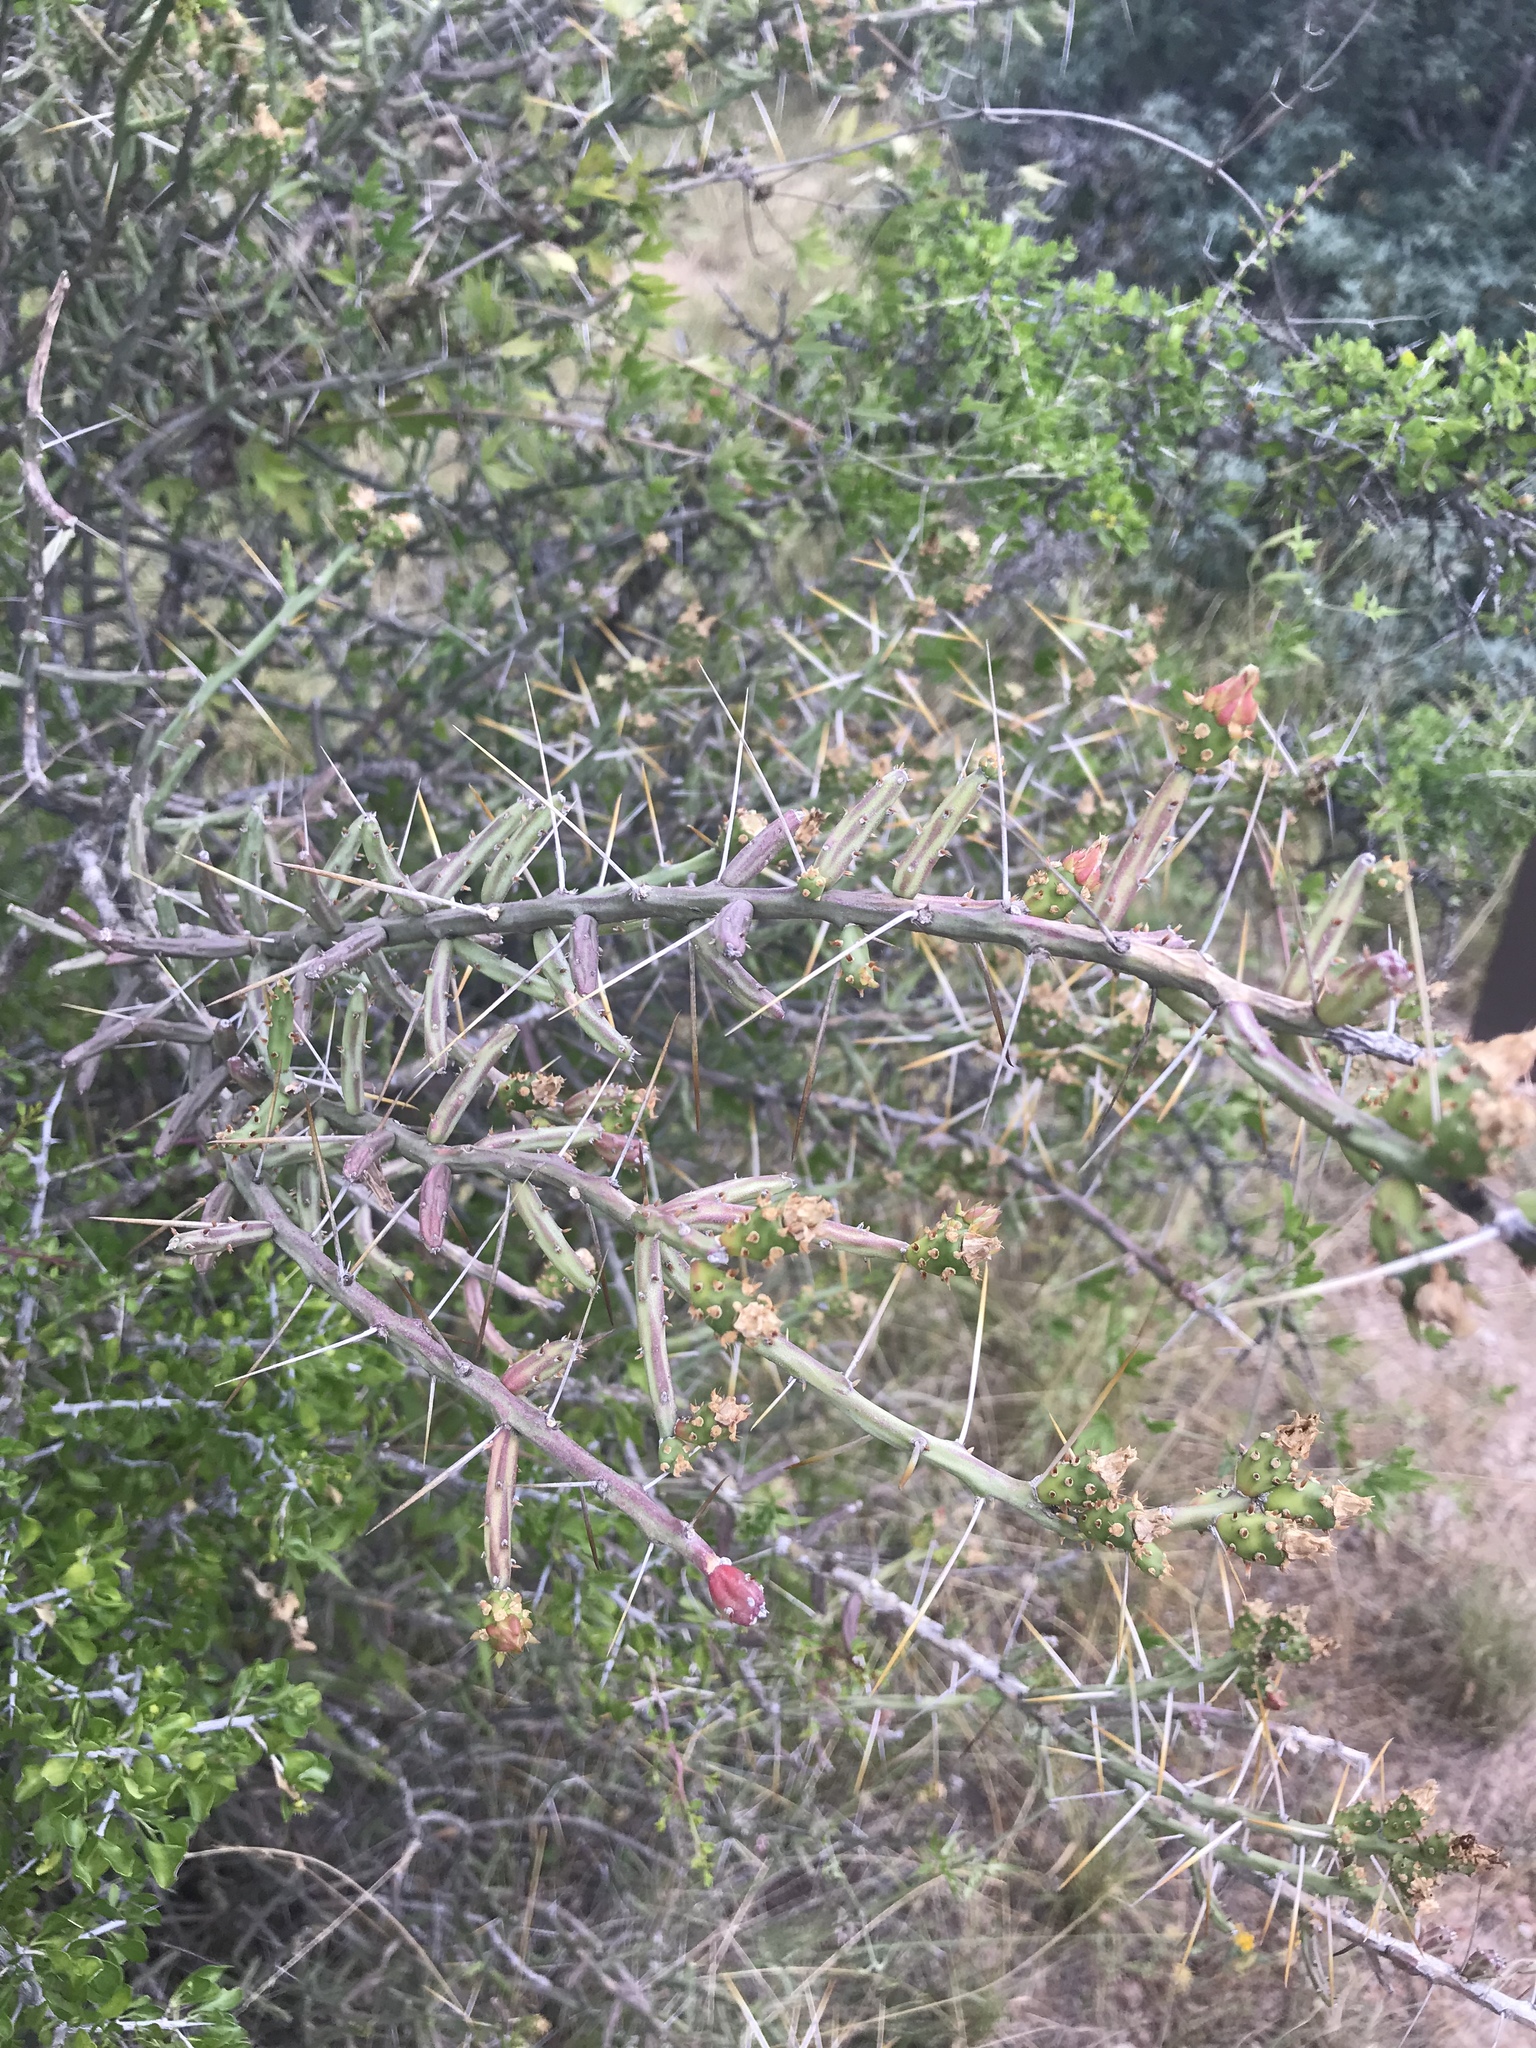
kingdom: Plantae
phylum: Tracheophyta
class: Magnoliopsida
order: Caryophyllales
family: Cactaceae
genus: Cylindropuntia
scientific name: Cylindropuntia leptocaulis
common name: Christmas cactus
